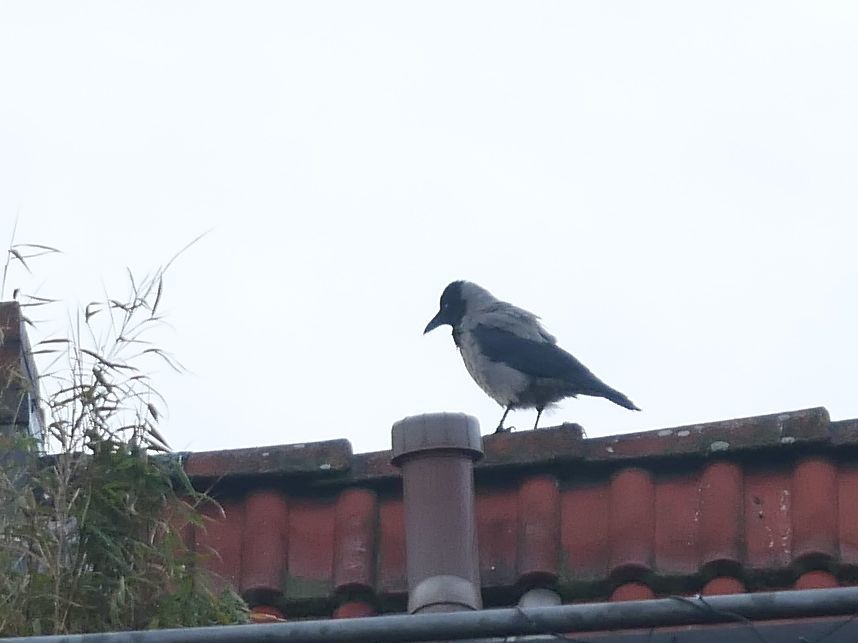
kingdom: Animalia
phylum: Chordata
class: Aves
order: Passeriformes
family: Corvidae
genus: Corvus
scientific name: Corvus cornix
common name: Hooded crow
